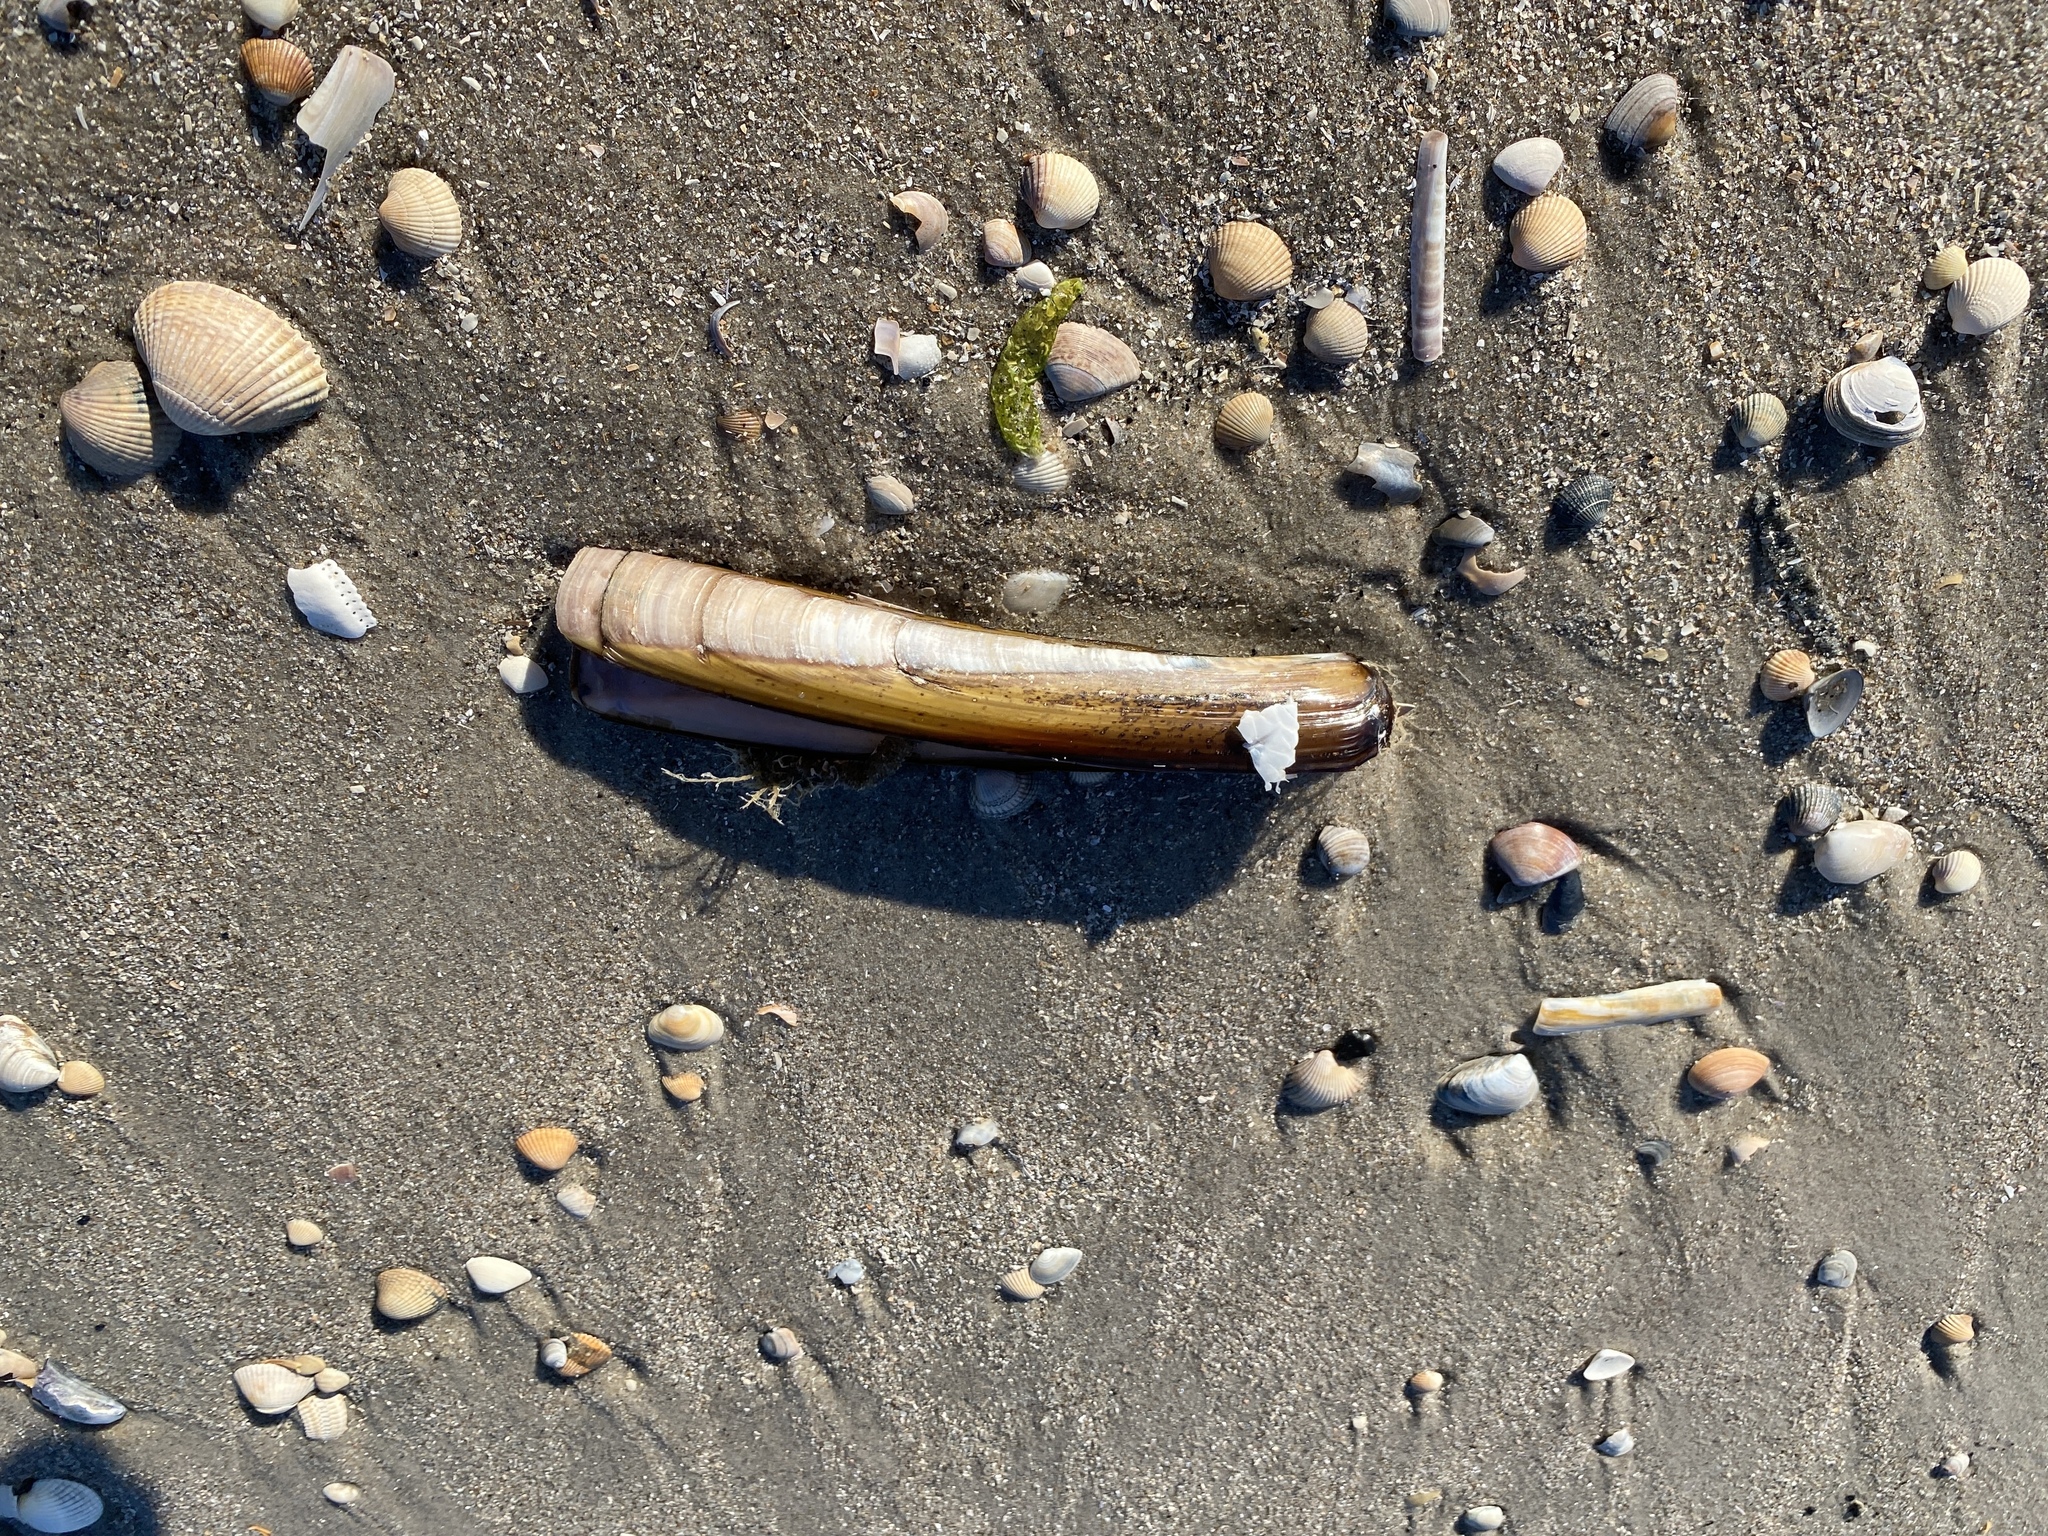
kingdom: Animalia
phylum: Mollusca
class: Bivalvia
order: Adapedonta
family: Pharidae
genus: Ensis
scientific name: Ensis leei
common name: American jack knife clam
